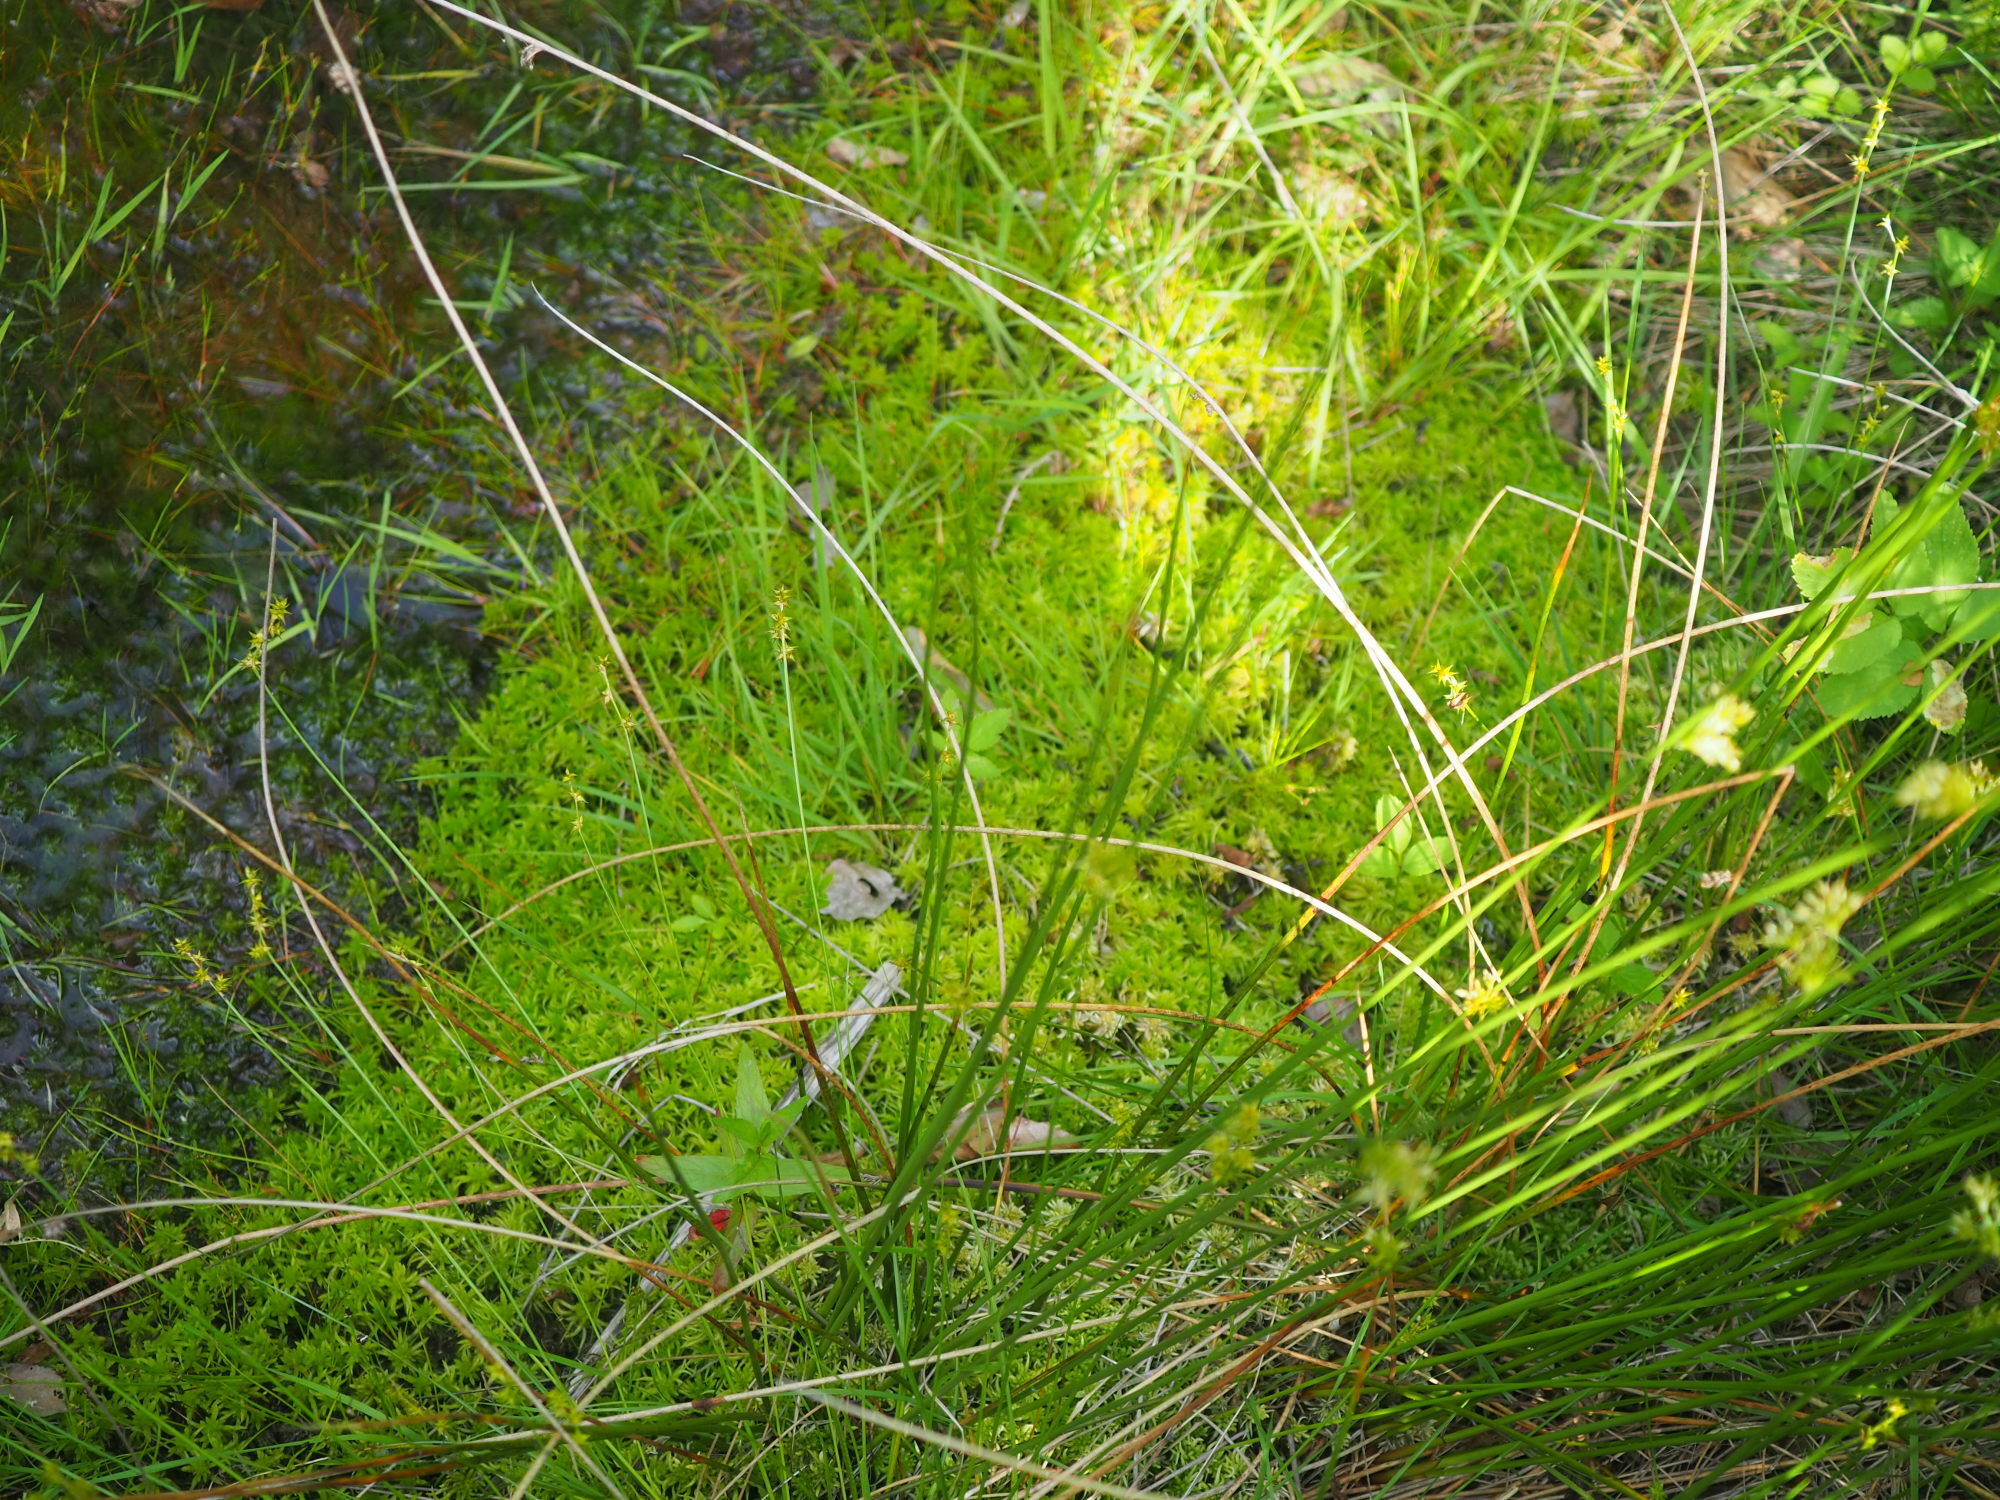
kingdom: Plantae
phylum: Tracheophyta
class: Liliopsida
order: Poales
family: Cyperaceae
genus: Carex
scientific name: Carex echinata
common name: Star sedge
